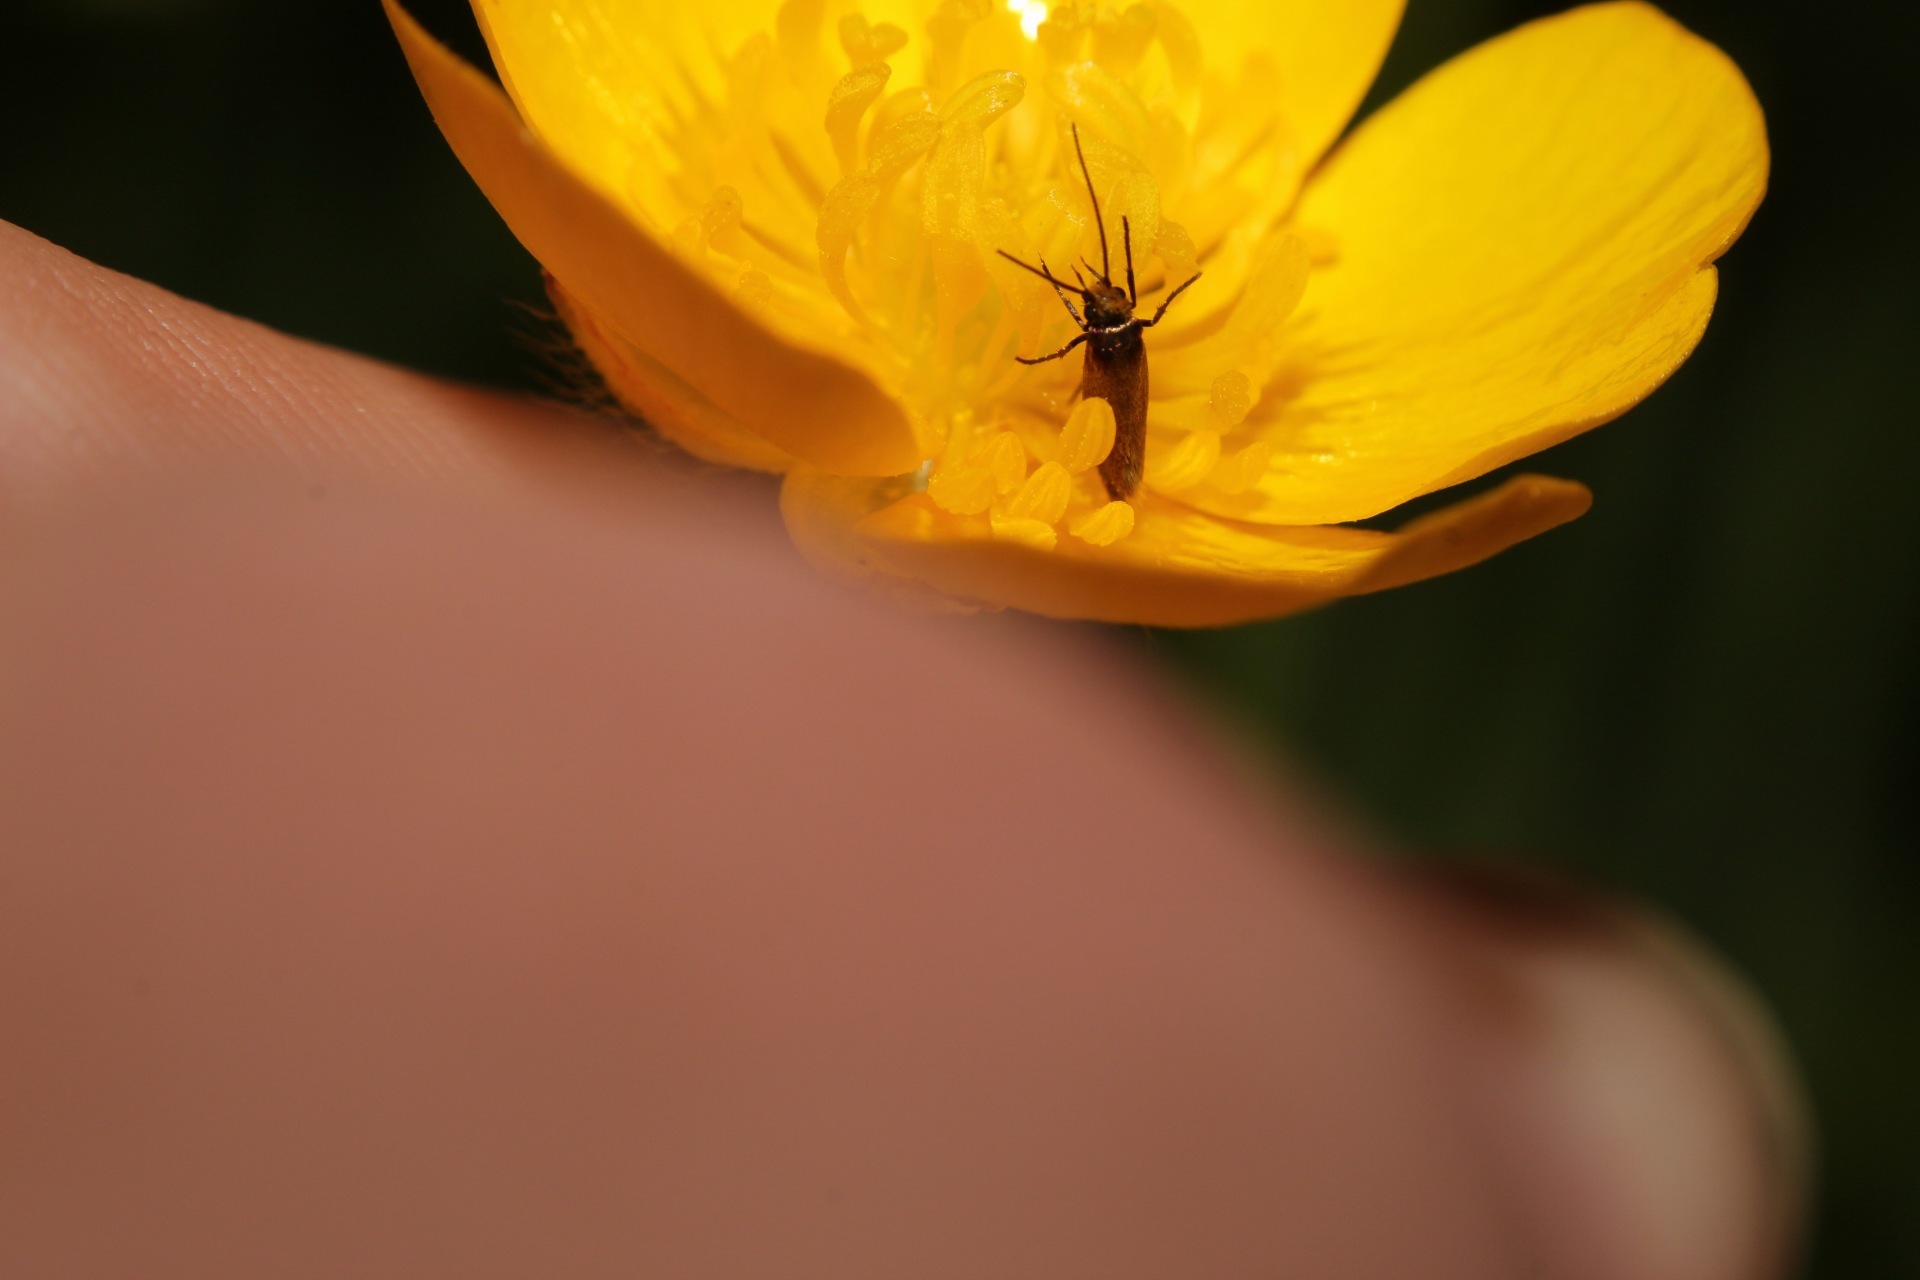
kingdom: Animalia
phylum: Arthropoda
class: Insecta
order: Lepidoptera
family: Micropterigidae
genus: Micropterix
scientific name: Micropterix calthella
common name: Plain gold
